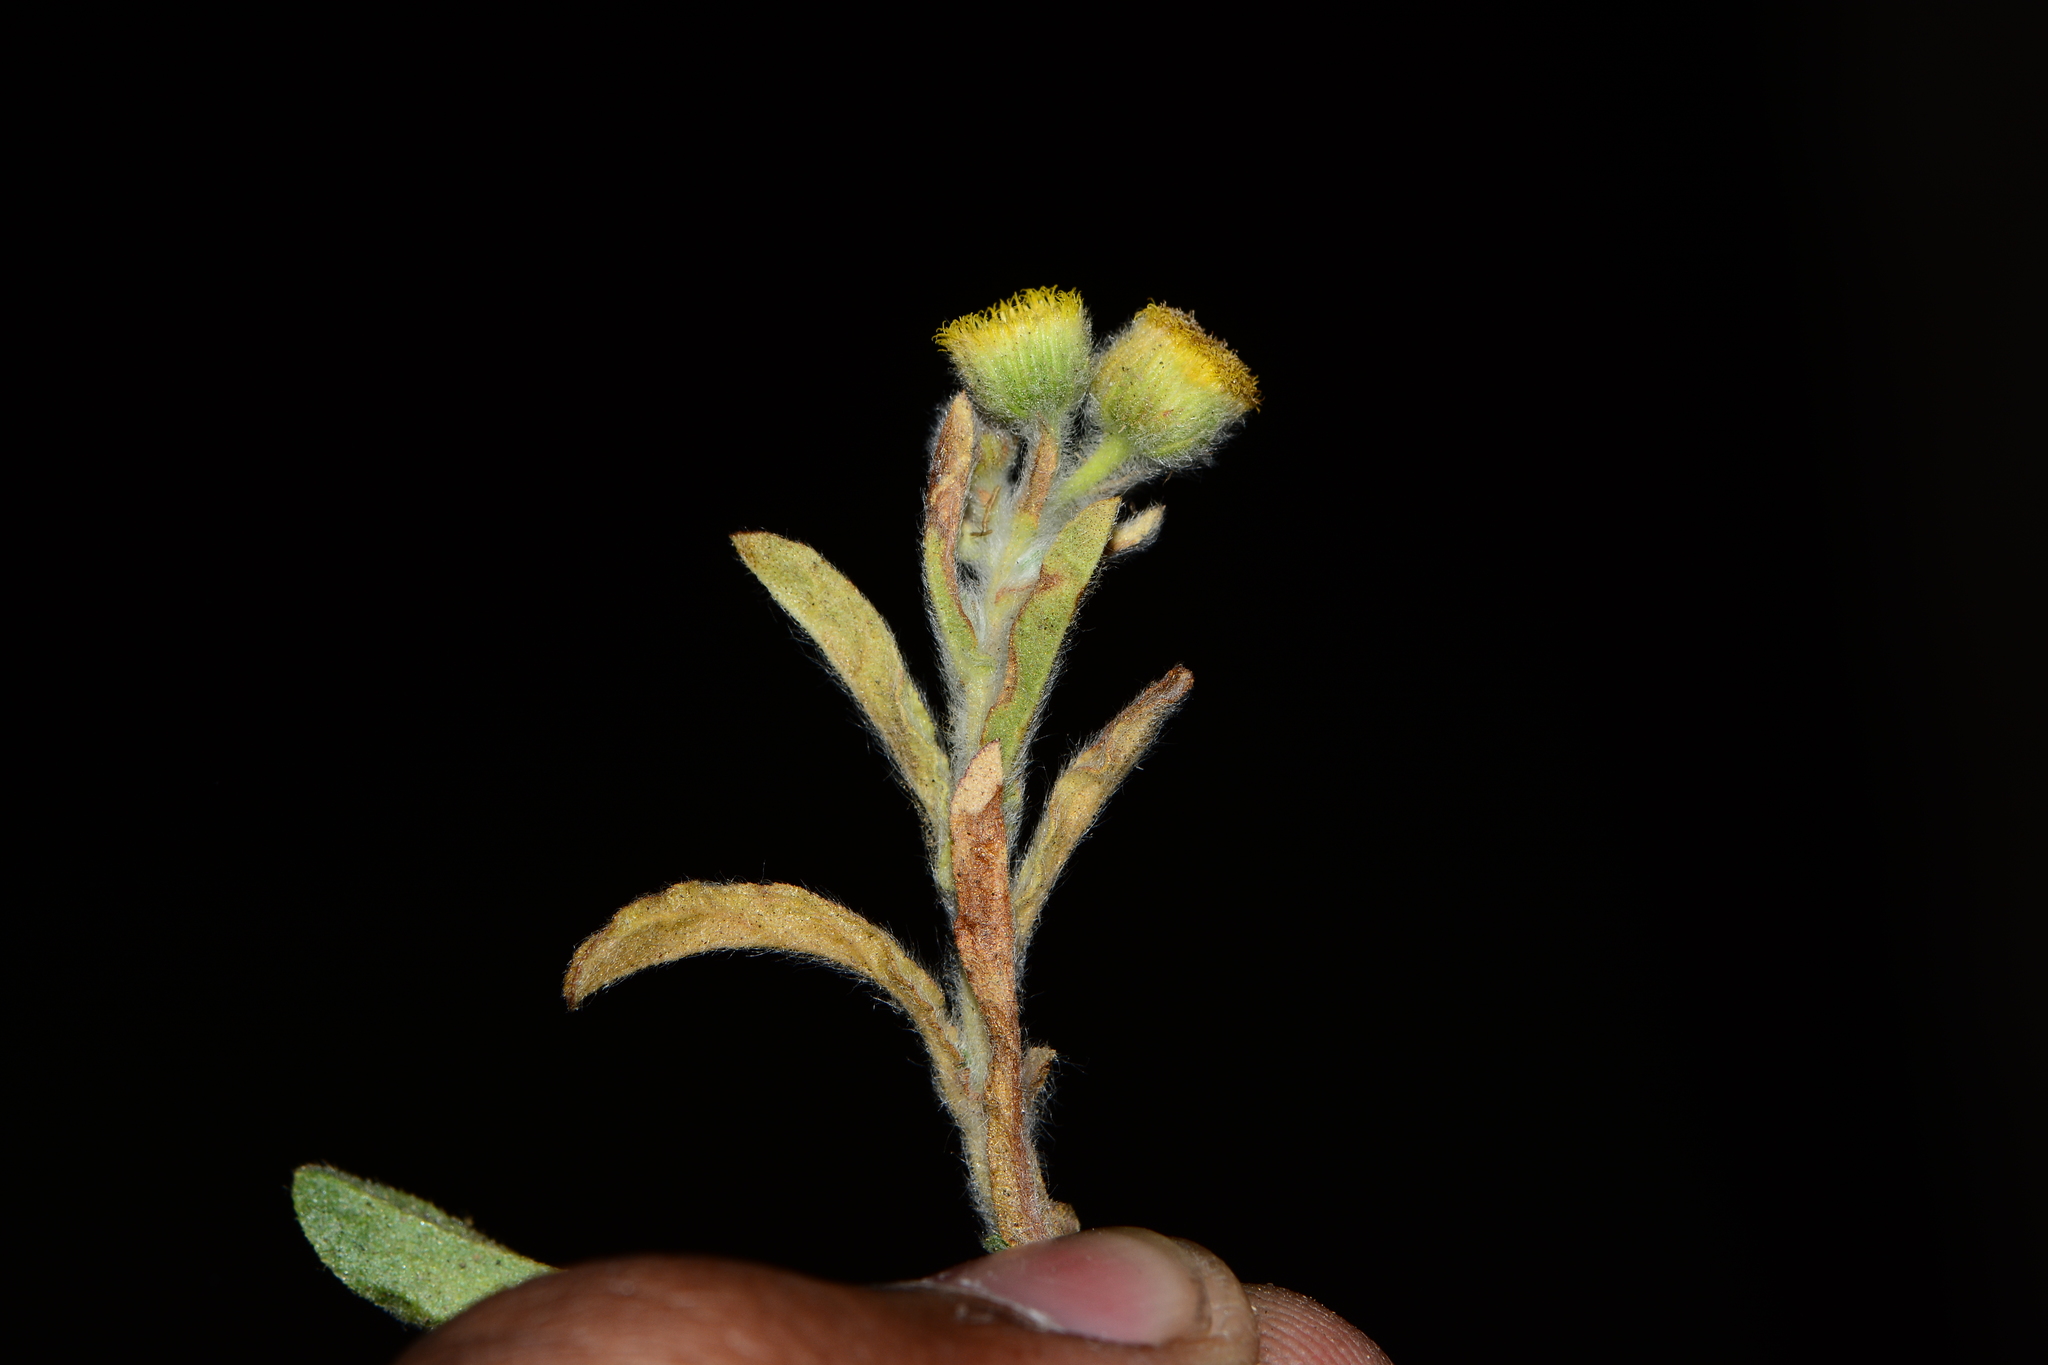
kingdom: Plantae
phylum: Tracheophyta
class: Magnoliopsida
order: Asterales
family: Asteraceae
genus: Pulicaria
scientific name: Pulicaria foliolosa
